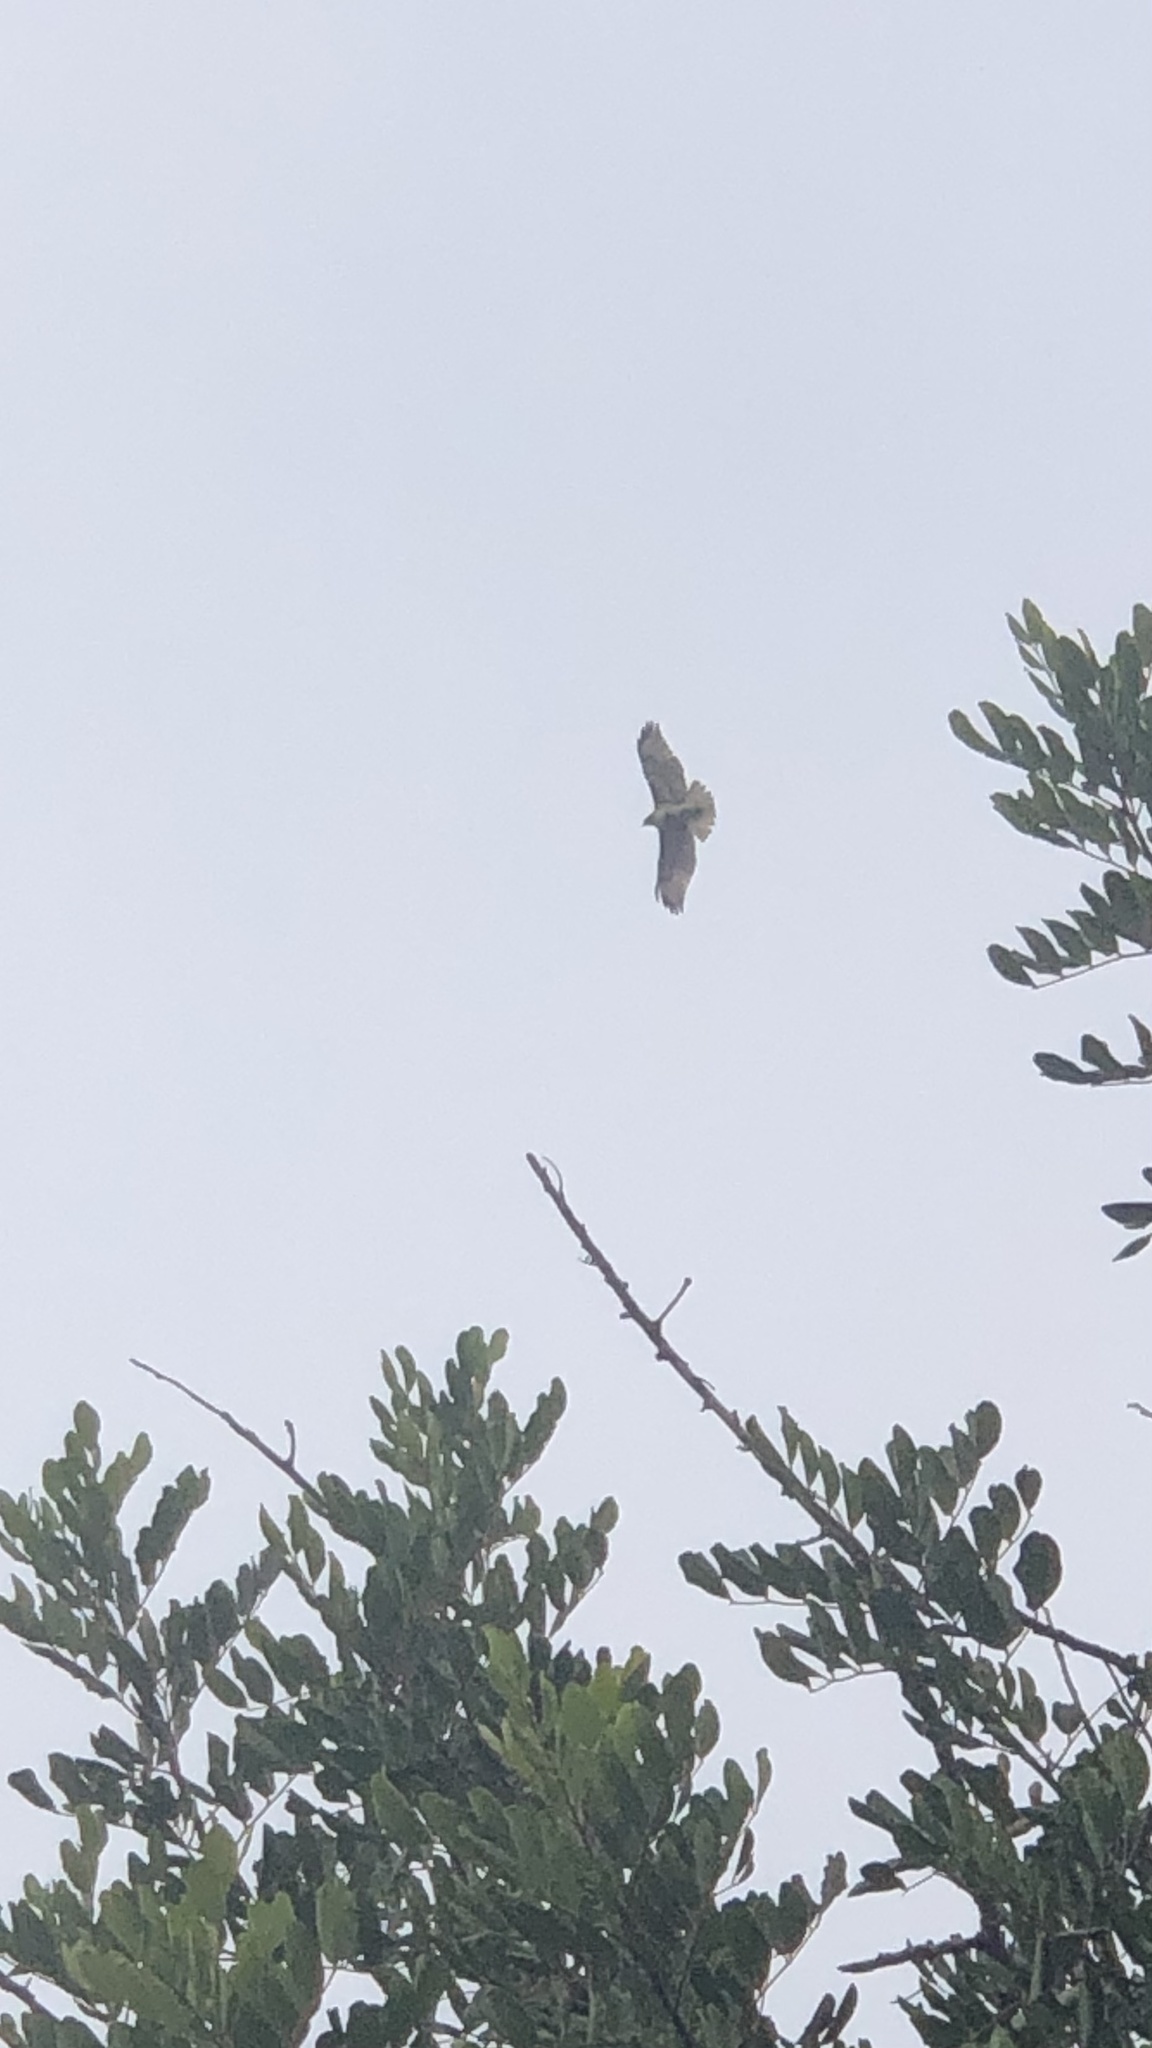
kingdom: Animalia
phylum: Chordata
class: Aves
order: Accipitriformes
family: Accipitridae
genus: Buteo
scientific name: Buteo jamaicensis
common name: Red-tailed hawk
